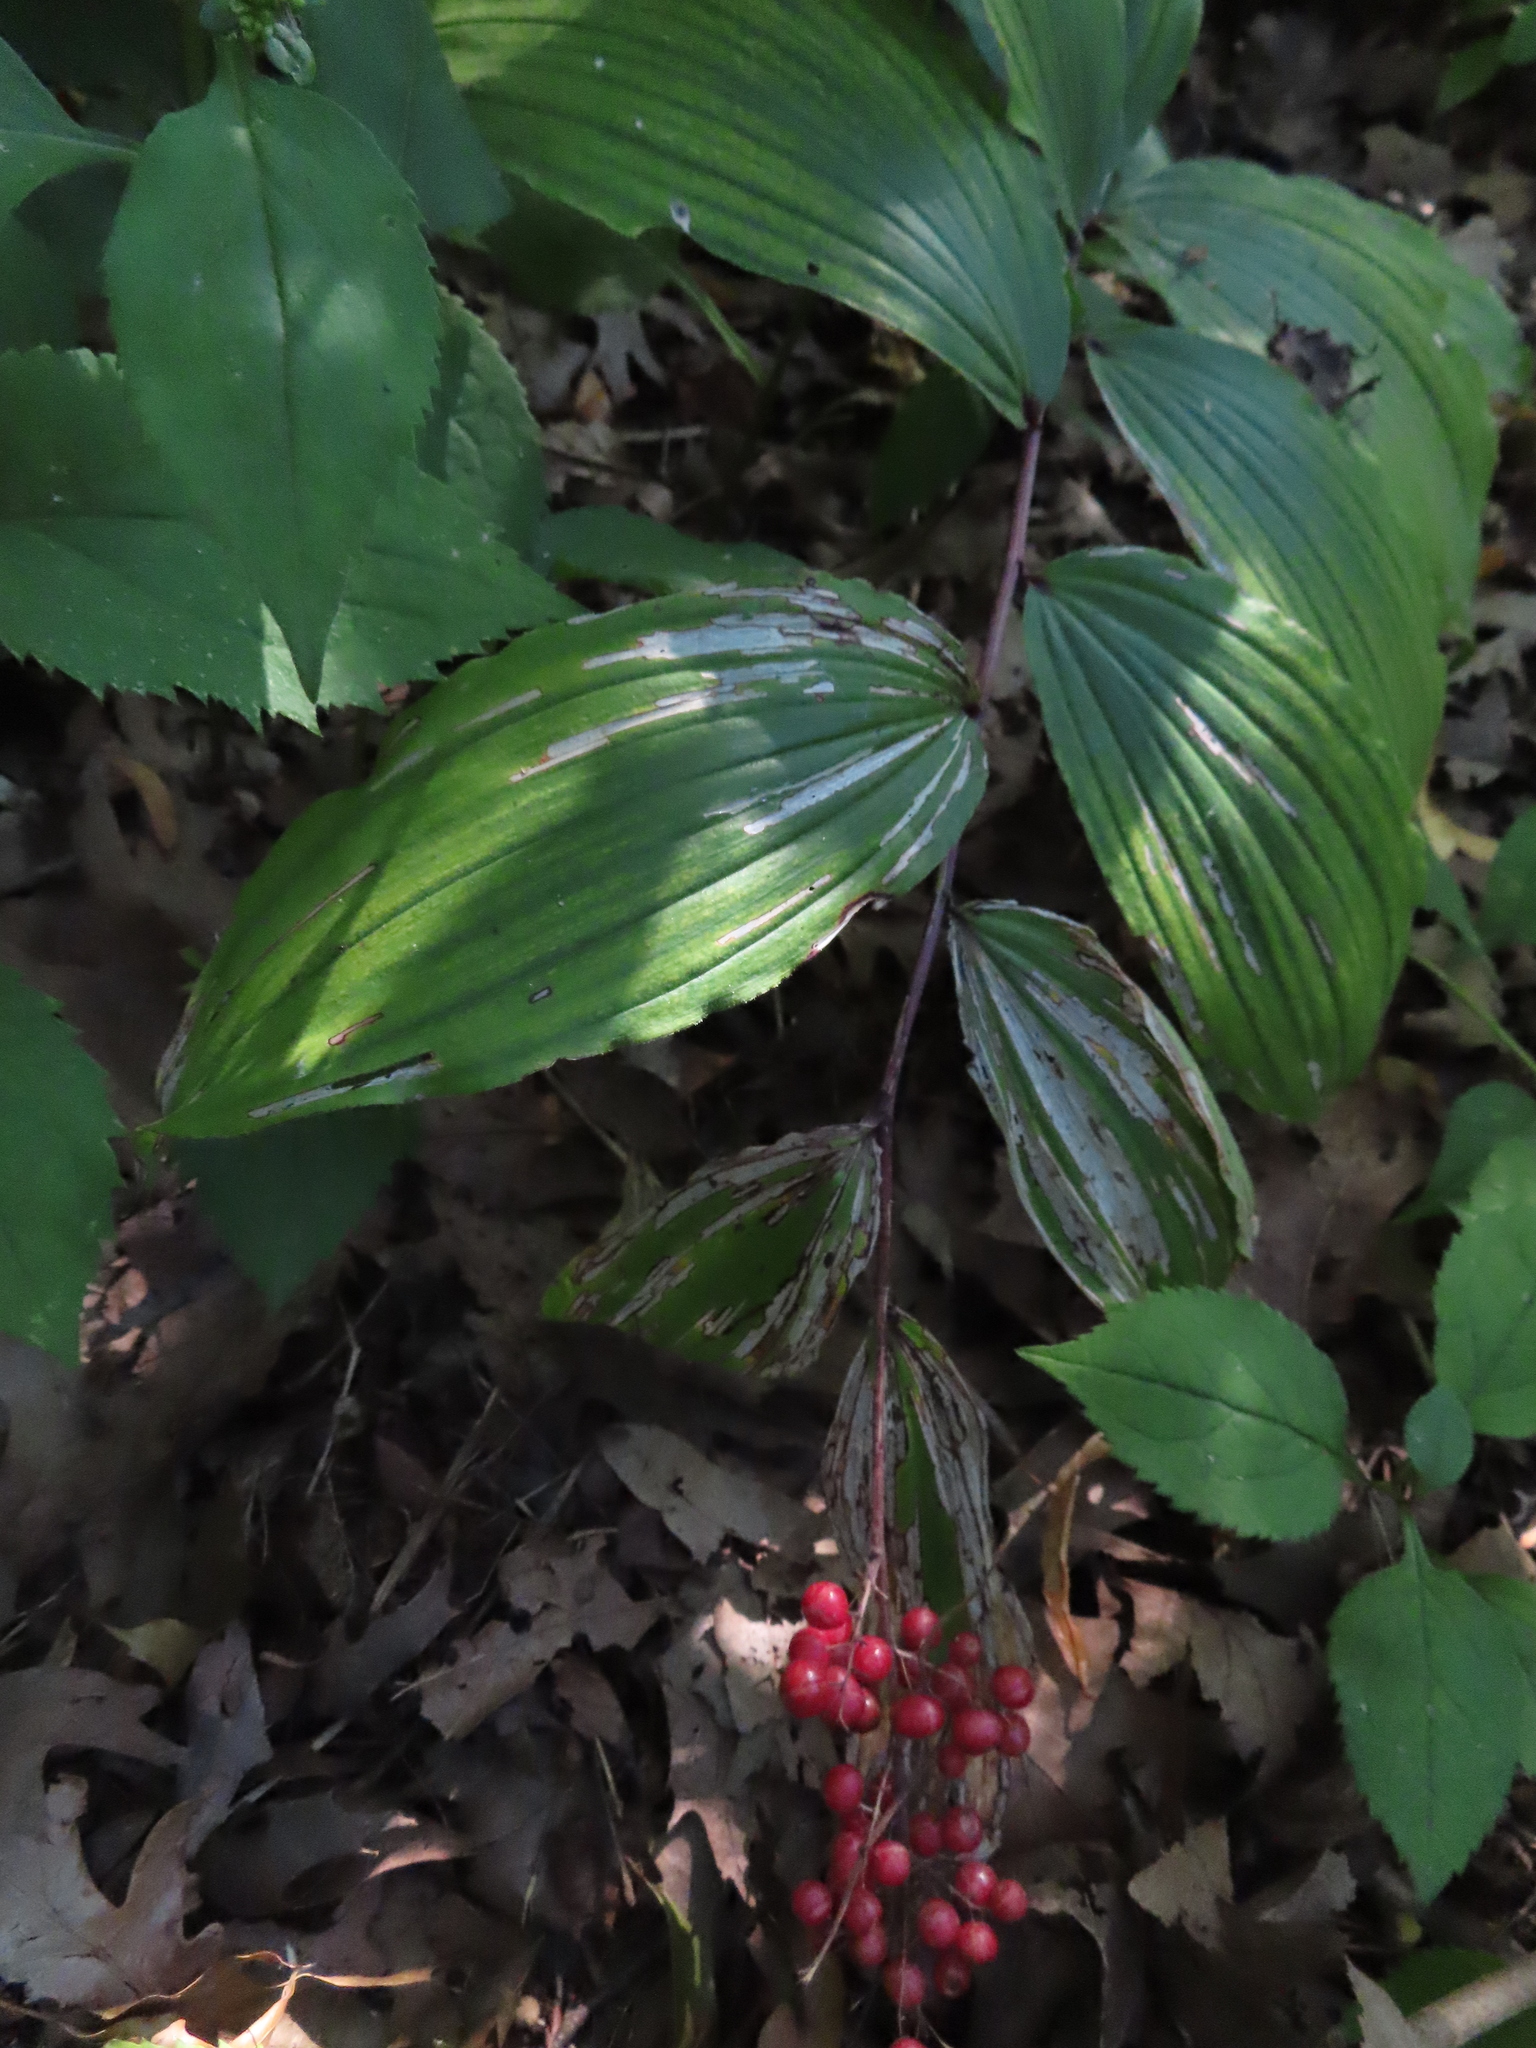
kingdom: Plantae
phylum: Tracheophyta
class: Liliopsida
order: Asparagales
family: Asparagaceae
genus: Maianthemum
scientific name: Maianthemum racemosum
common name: False spikenard
